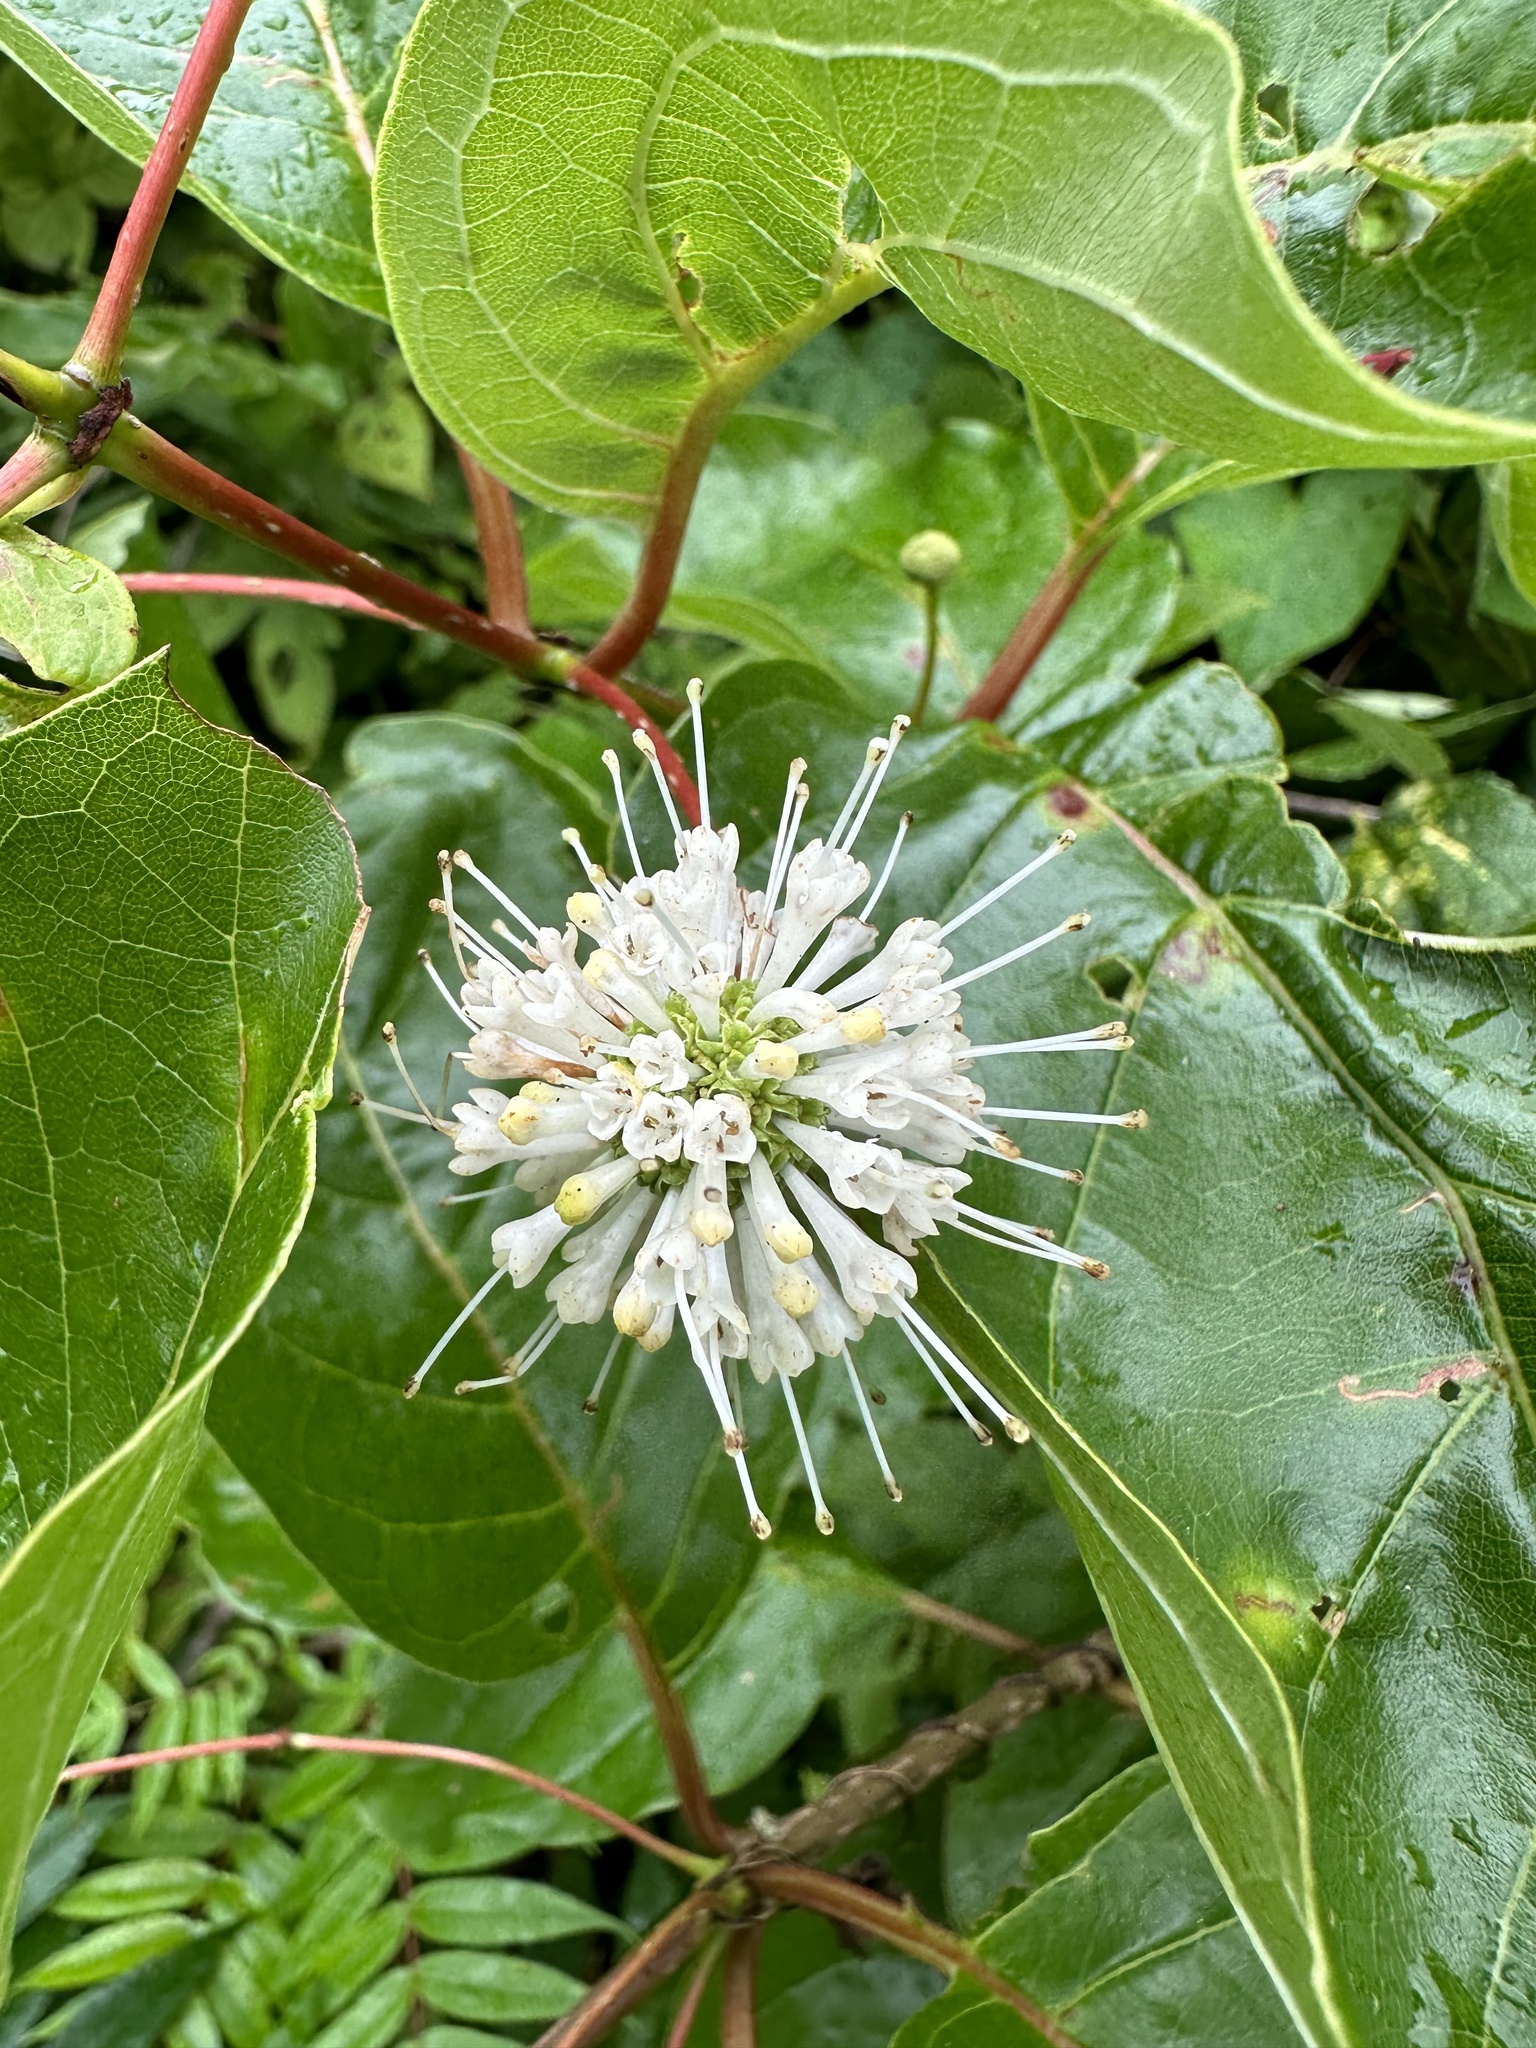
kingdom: Plantae
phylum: Tracheophyta
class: Magnoliopsida
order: Gentianales
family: Rubiaceae
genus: Cephalanthus
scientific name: Cephalanthus occidentalis
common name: Button-willow
